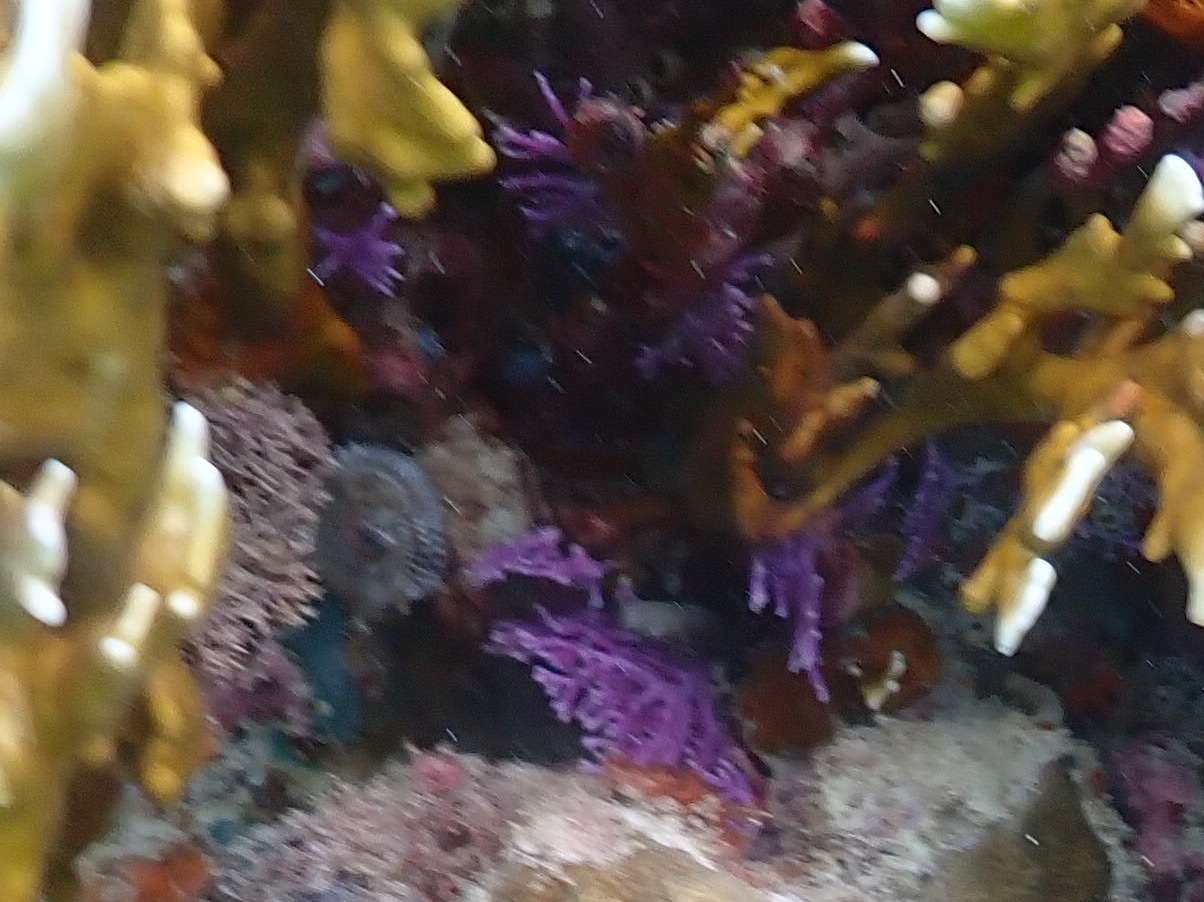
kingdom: Animalia
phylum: Cnidaria
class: Hydrozoa
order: Anthoathecata
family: Stylasteridae
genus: Stylaster
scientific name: Stylaster roseus
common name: Rose lace coral
